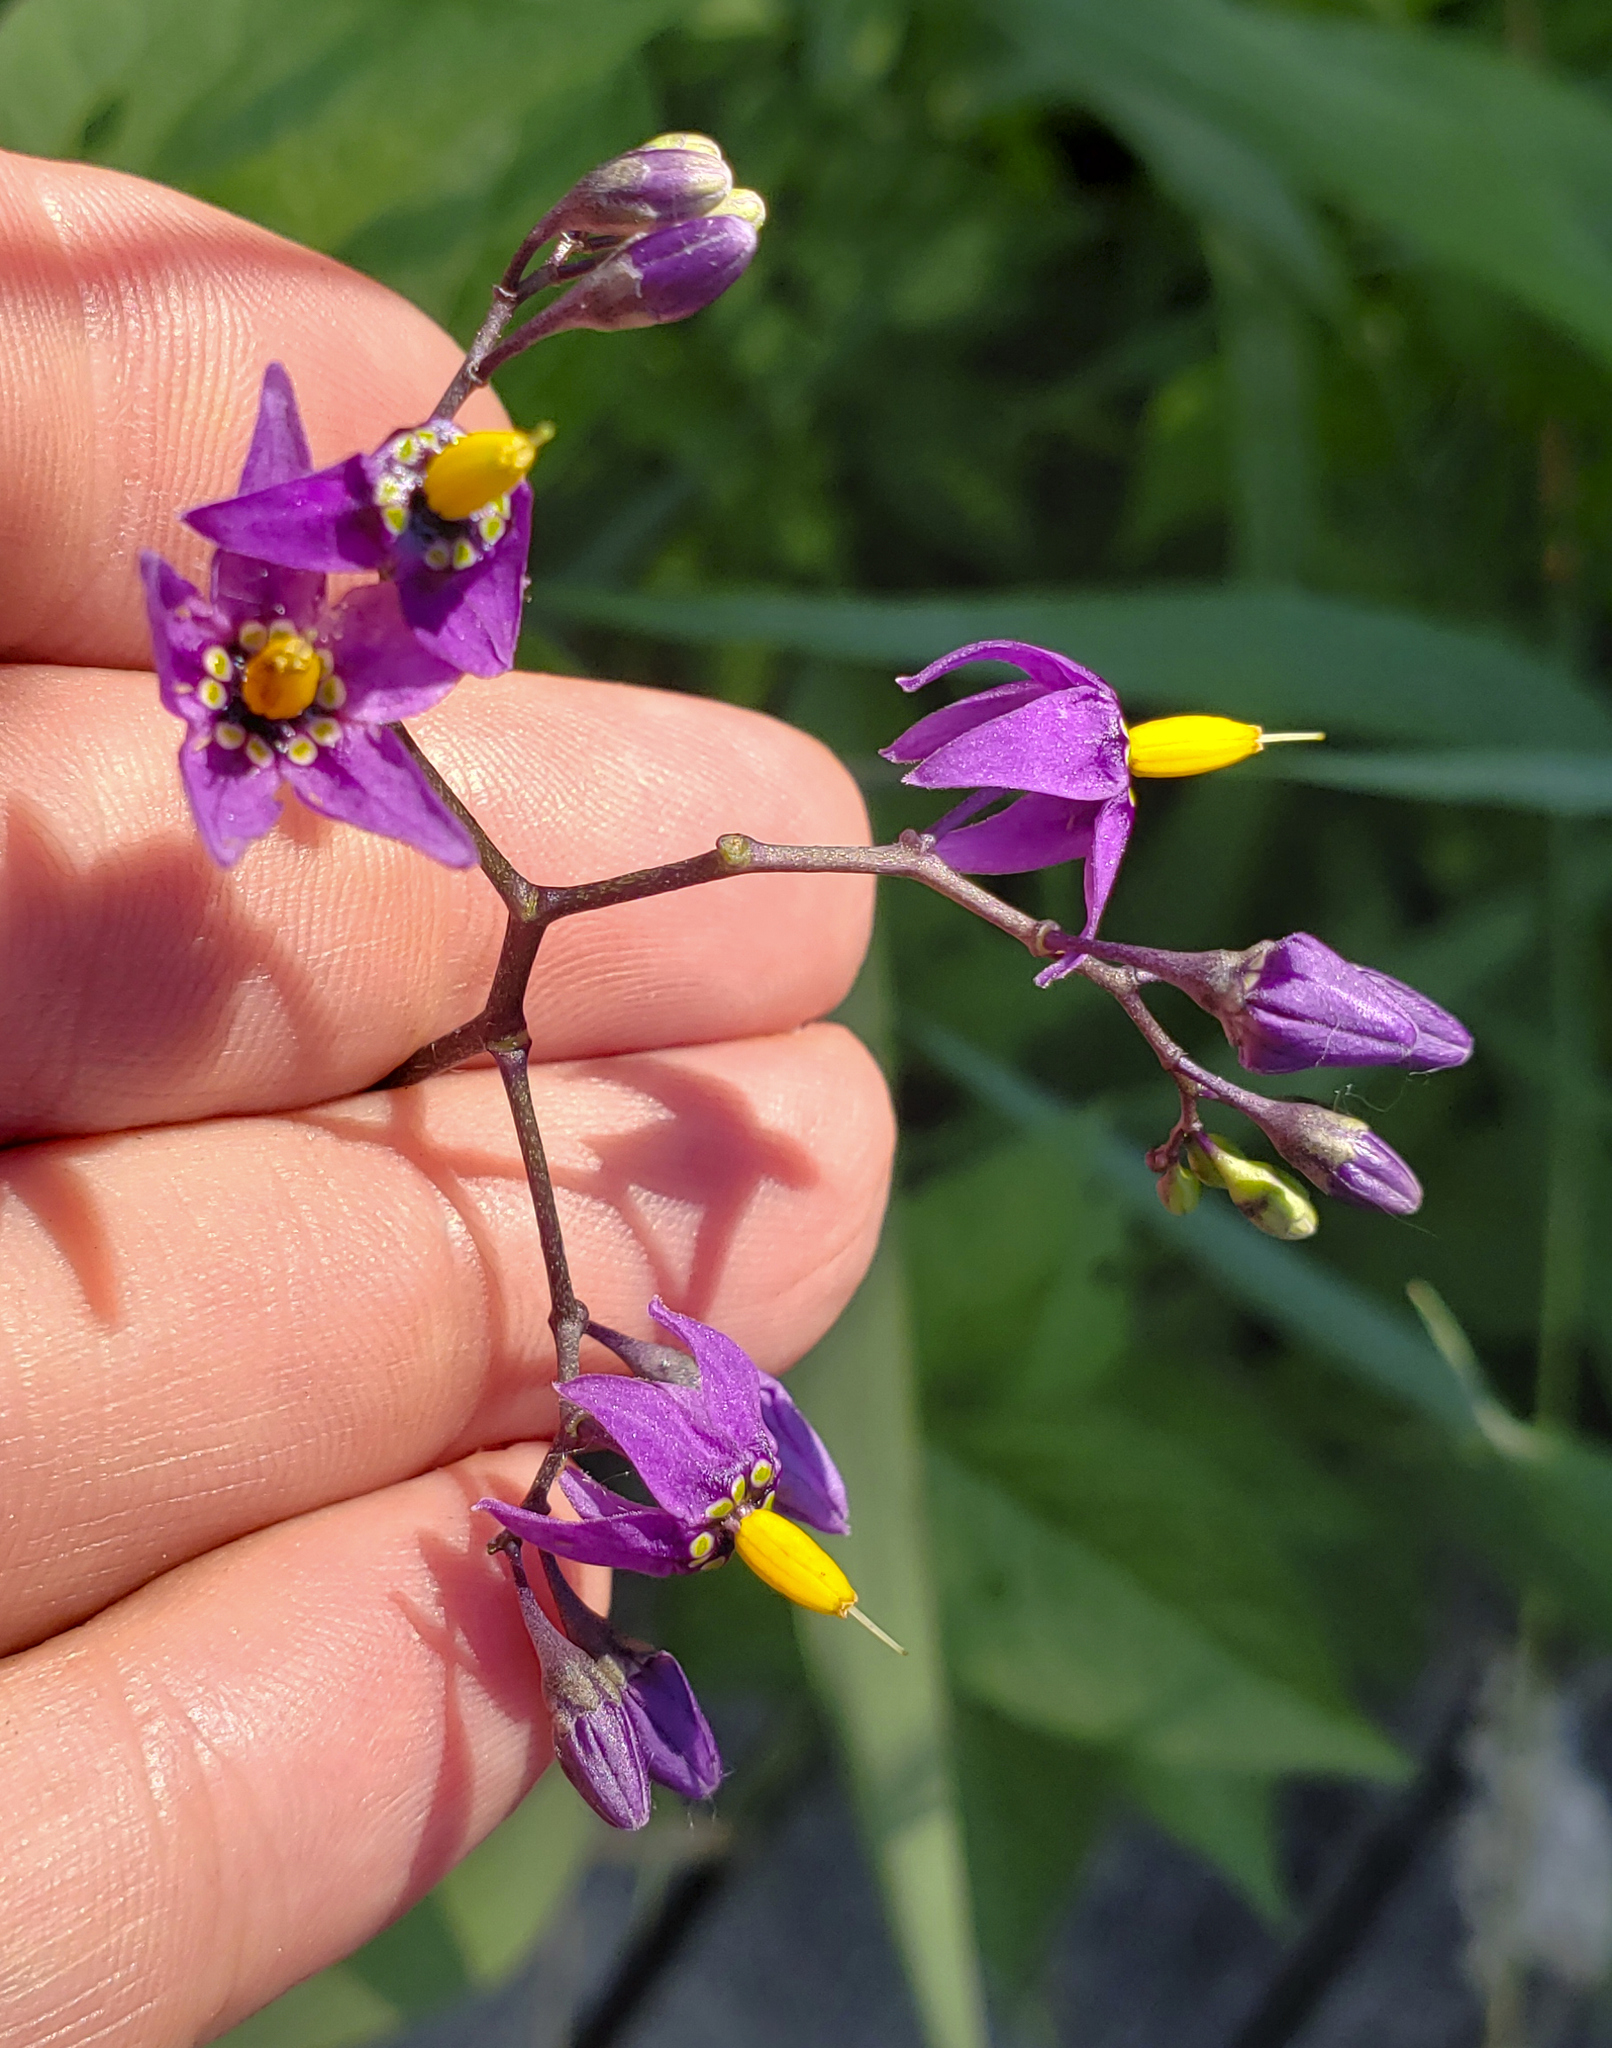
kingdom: Plantae
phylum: Tracheophyta
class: Magnoliopsida
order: Solanales
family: Solanaceae
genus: Solanum
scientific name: Solanum dulcamara
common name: Climbing nightshade
